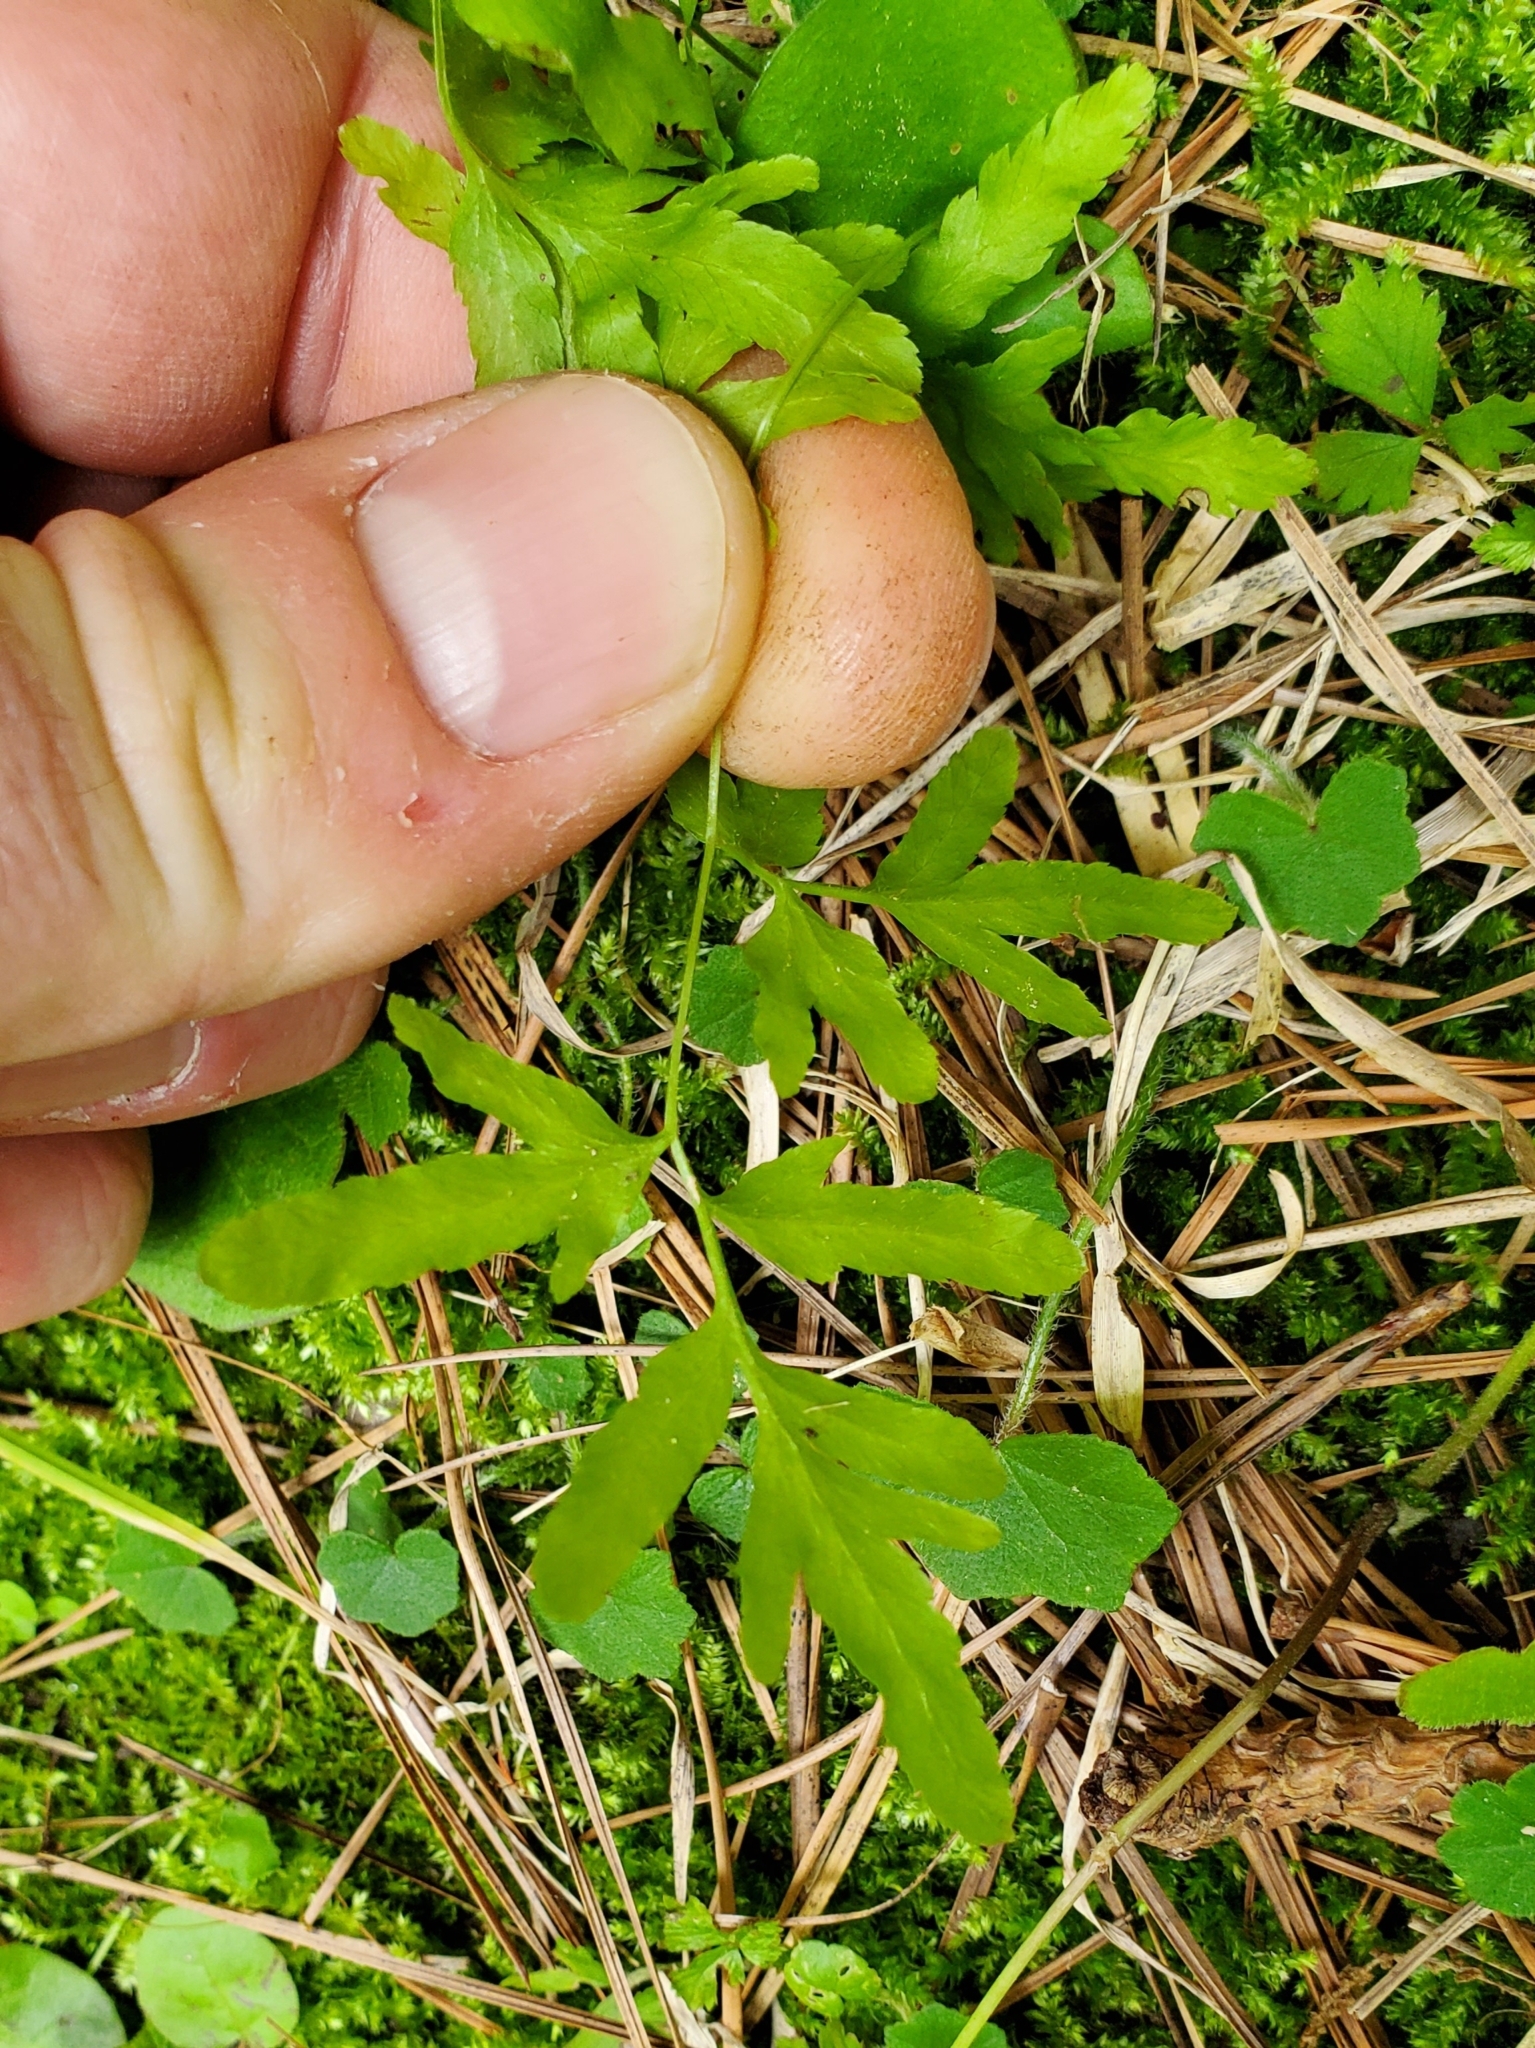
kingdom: Plantae
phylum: Tracheophyta
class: Polypodiopsida
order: Schizaeales
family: Lygodiaceae
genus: Lygodium
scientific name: Lygodium japonicum
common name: Japanese climbing fern
